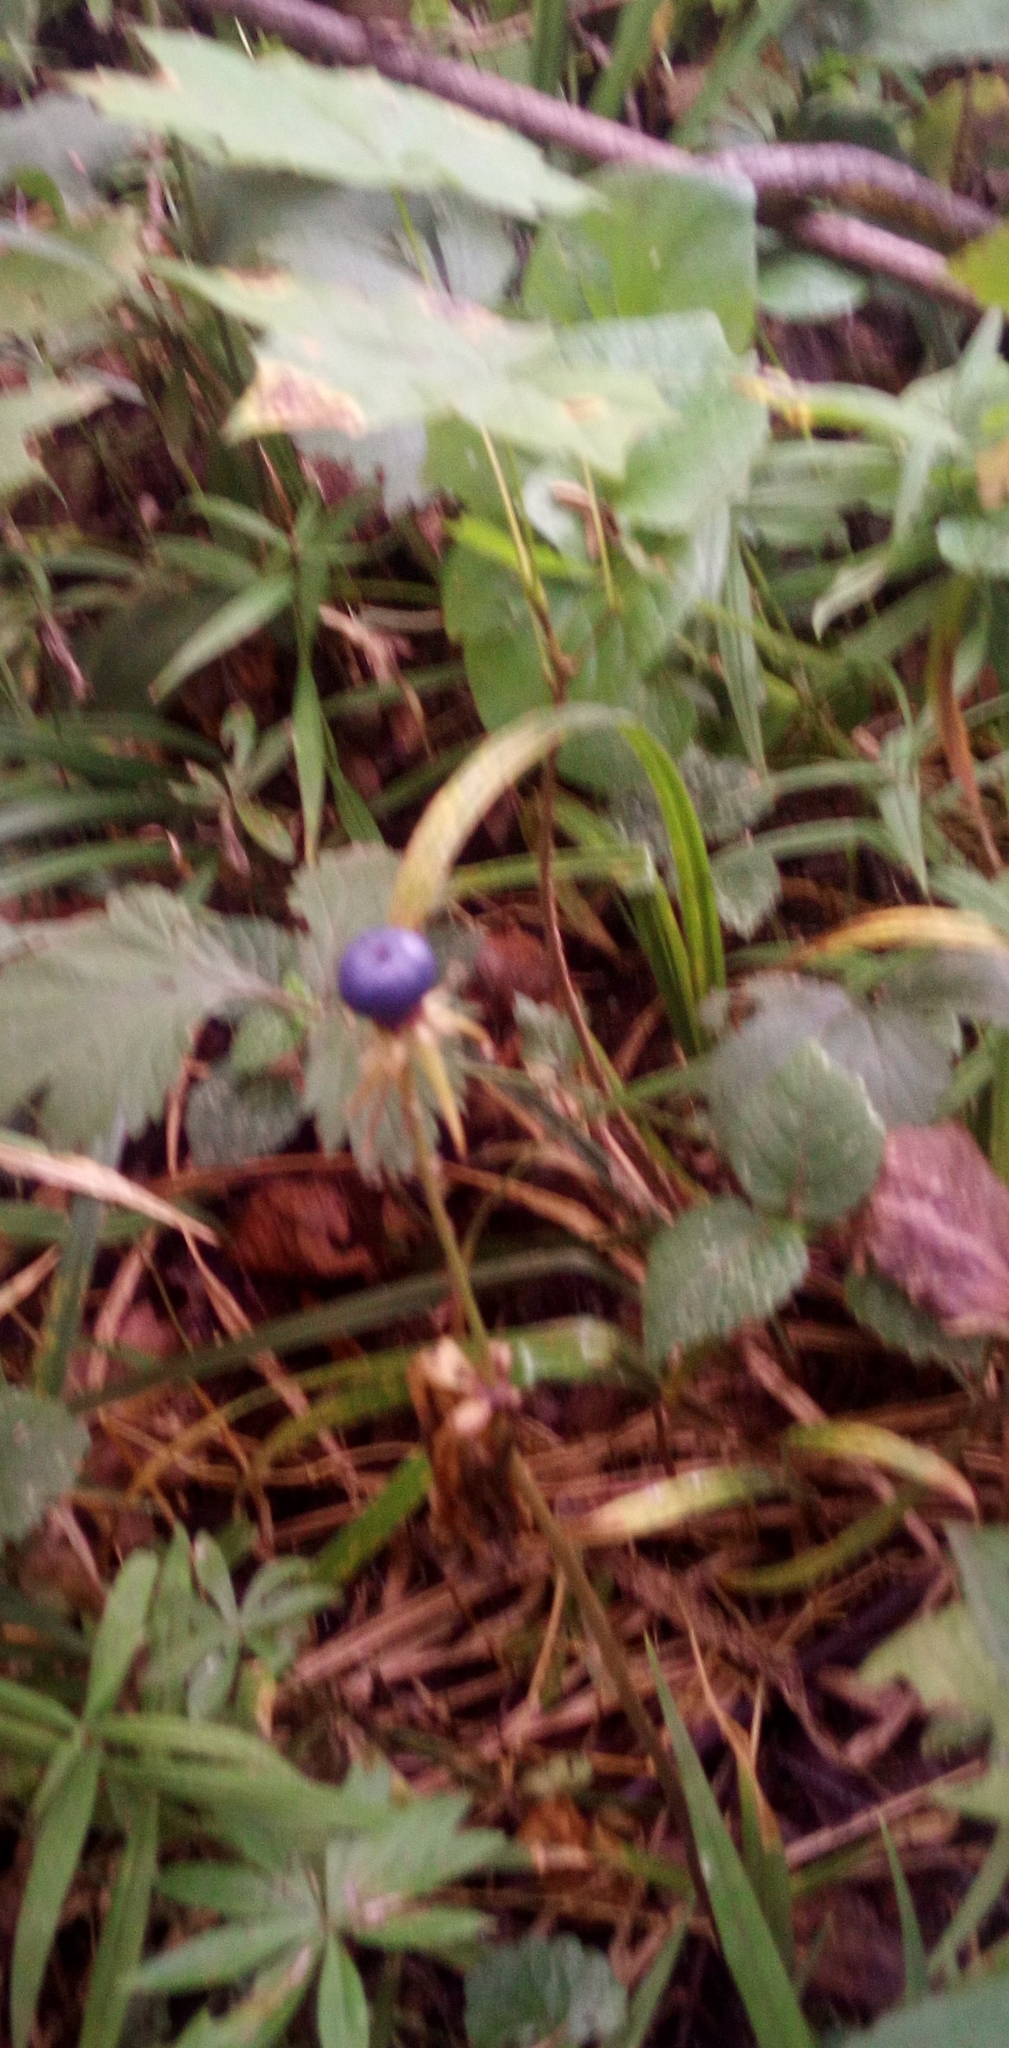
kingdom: Plantae
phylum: Tracheophyta
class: Liliopsida
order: Liliales
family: Melanthiaceae
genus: Paris
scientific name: Paris quadrifolia
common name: Herb-paris
